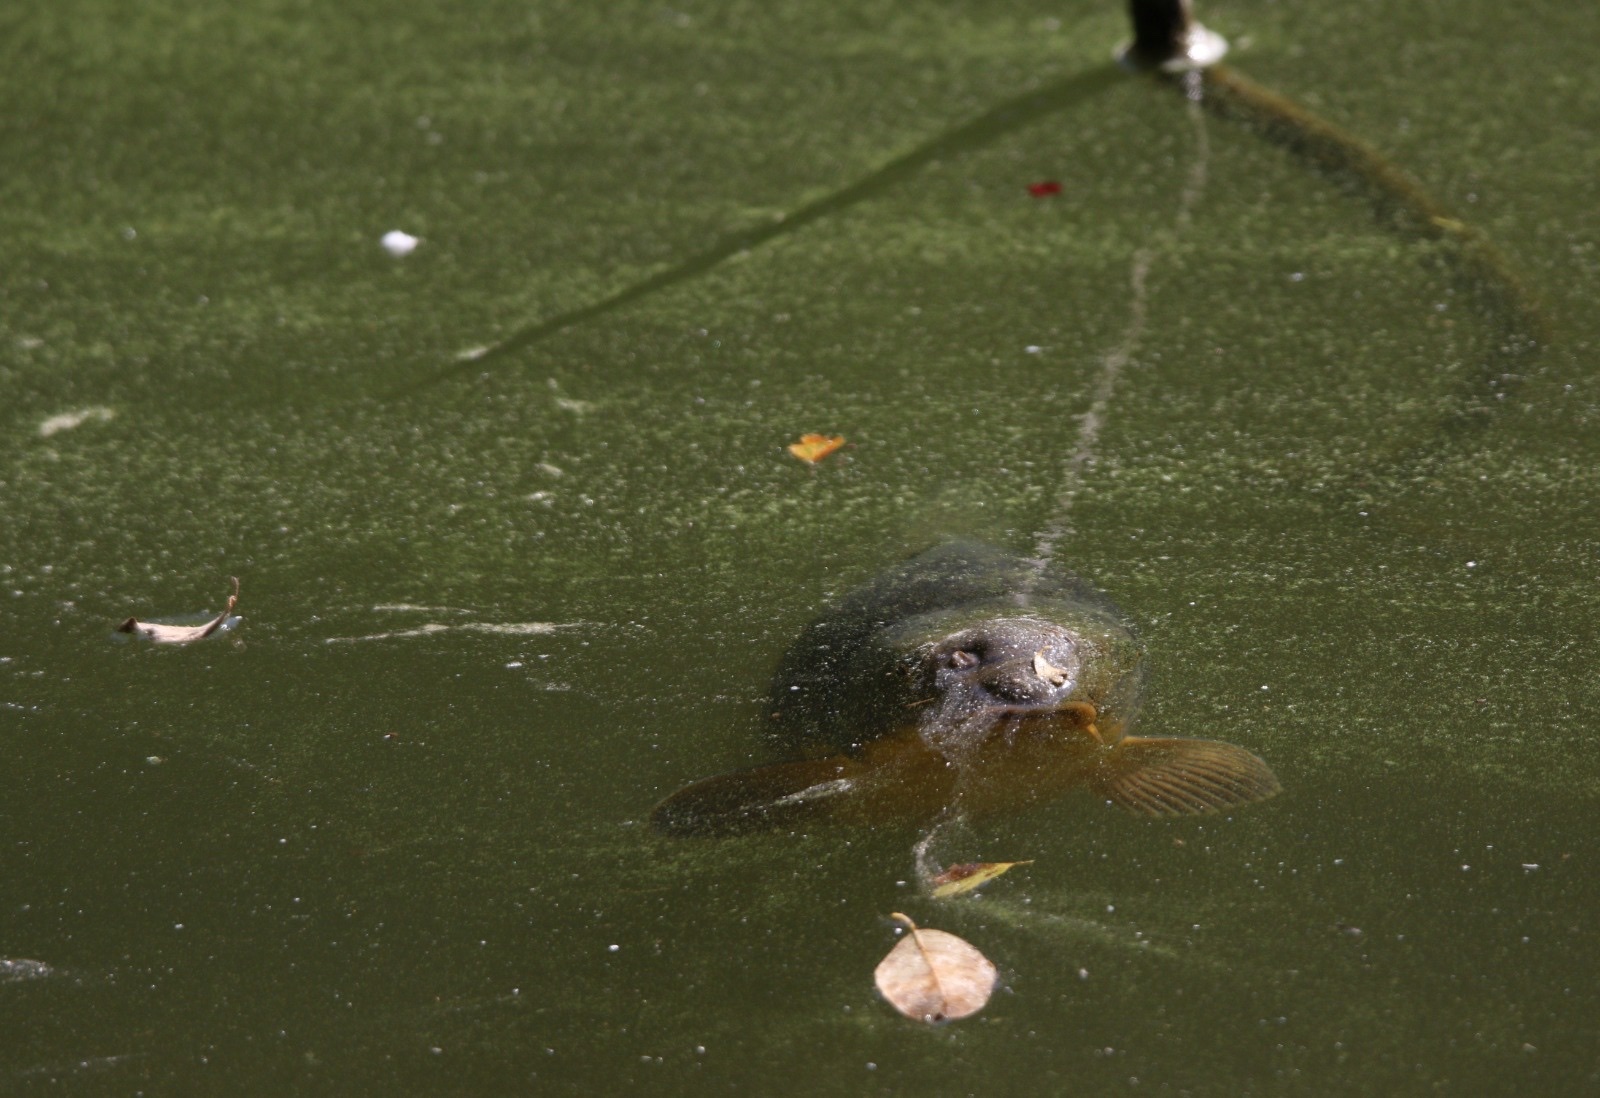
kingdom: Animalia
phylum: Chordata
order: Cypriniformes
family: Cyprinidae
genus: Cyprinus
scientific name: Cyprinus carpio
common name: Common carp
